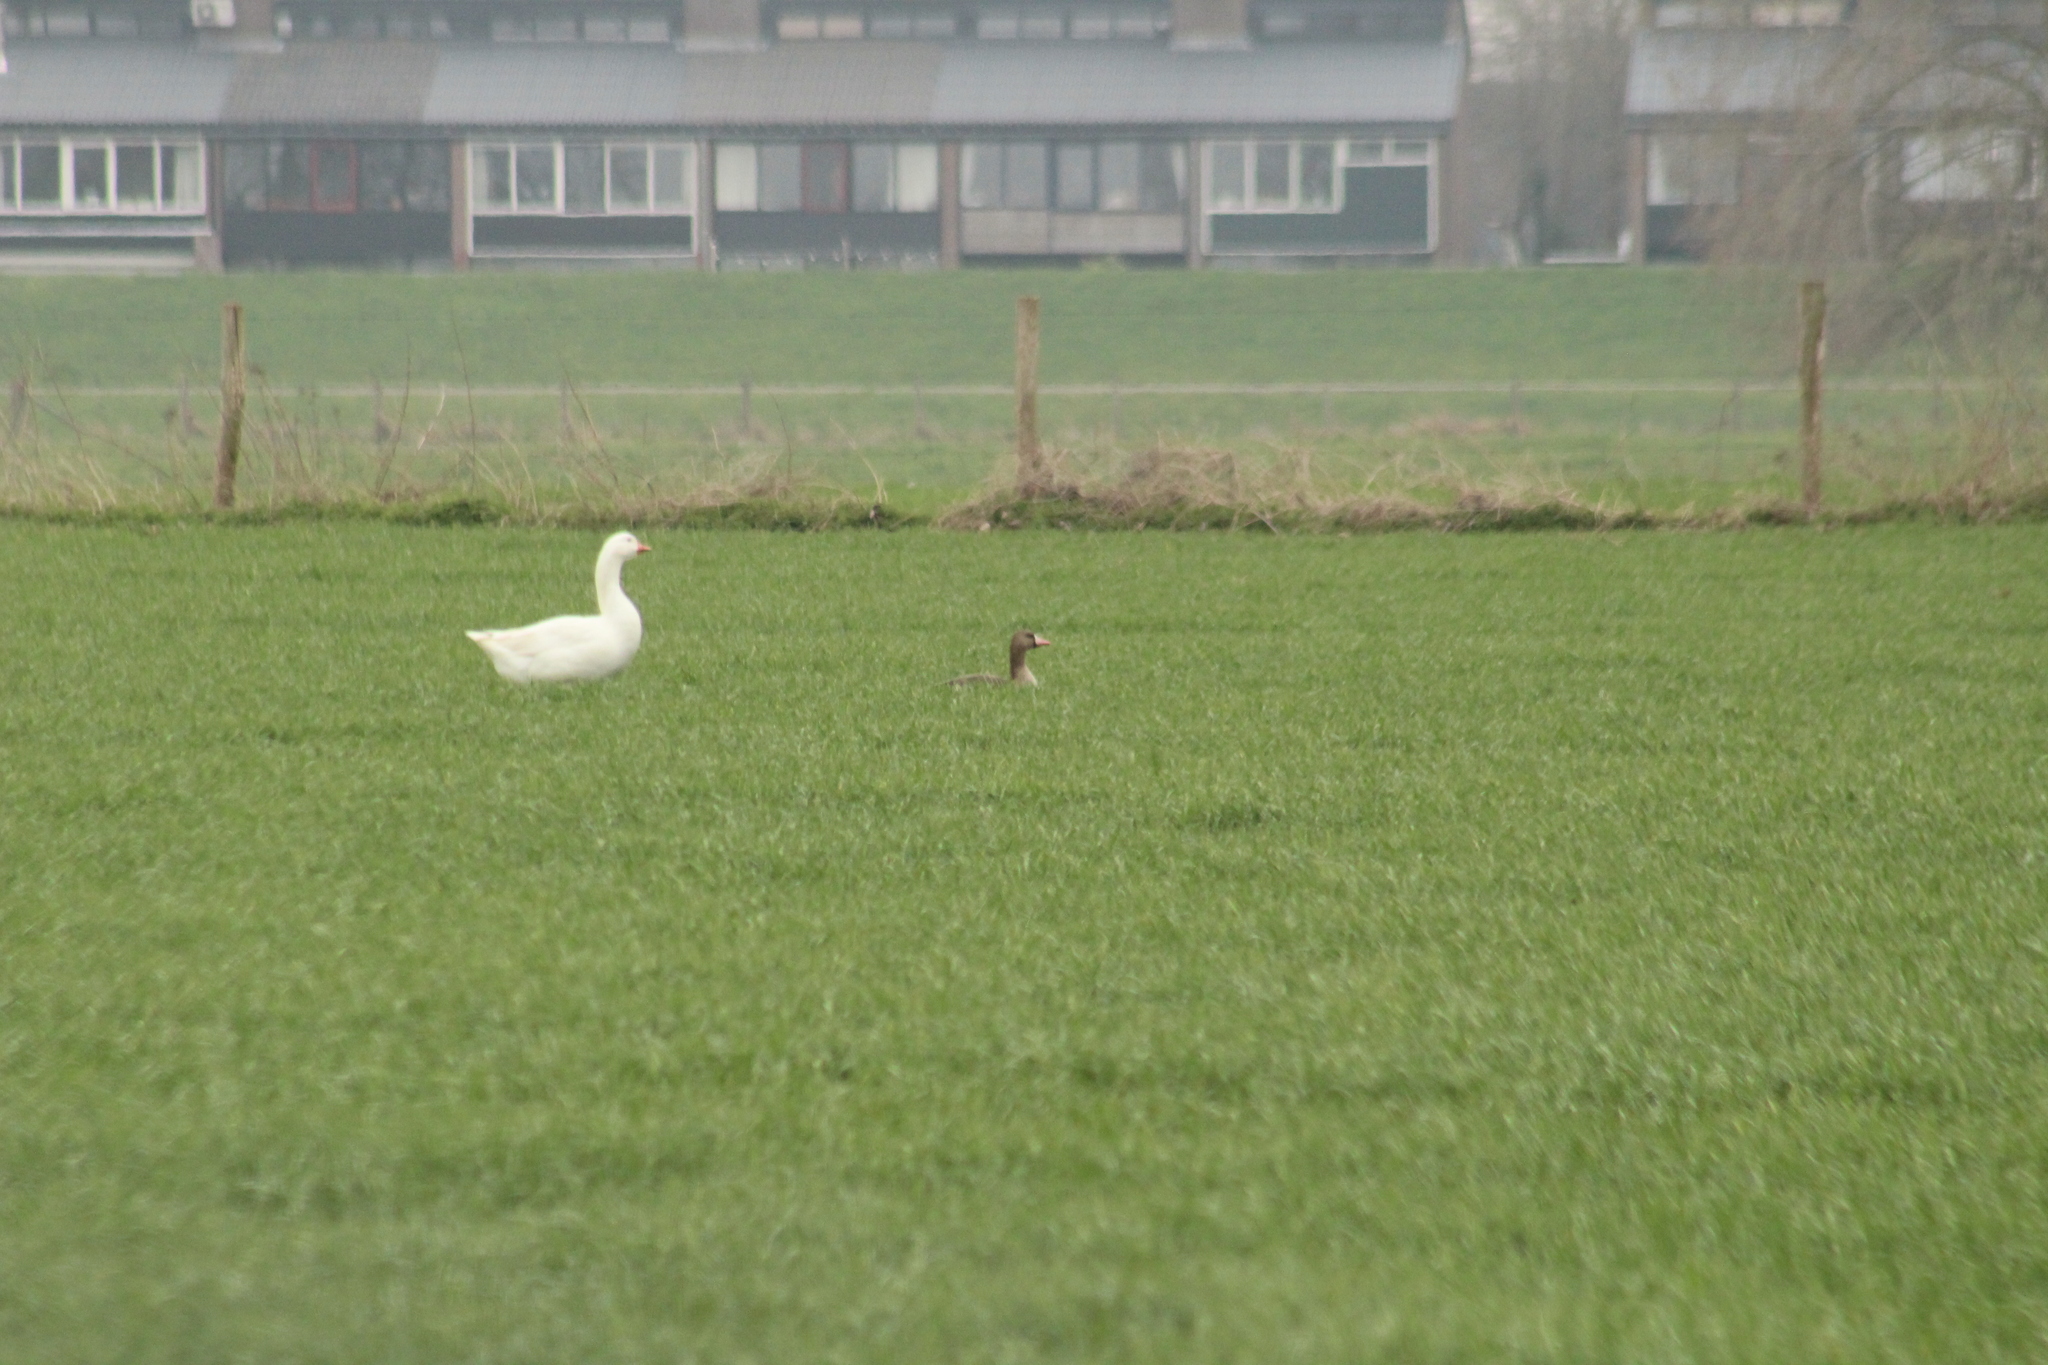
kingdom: Animalia
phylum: Chordata
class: Aves
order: Anseriformes
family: Anatidae
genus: Anser
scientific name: Anser albifrons
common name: Greater white-fronted goose
